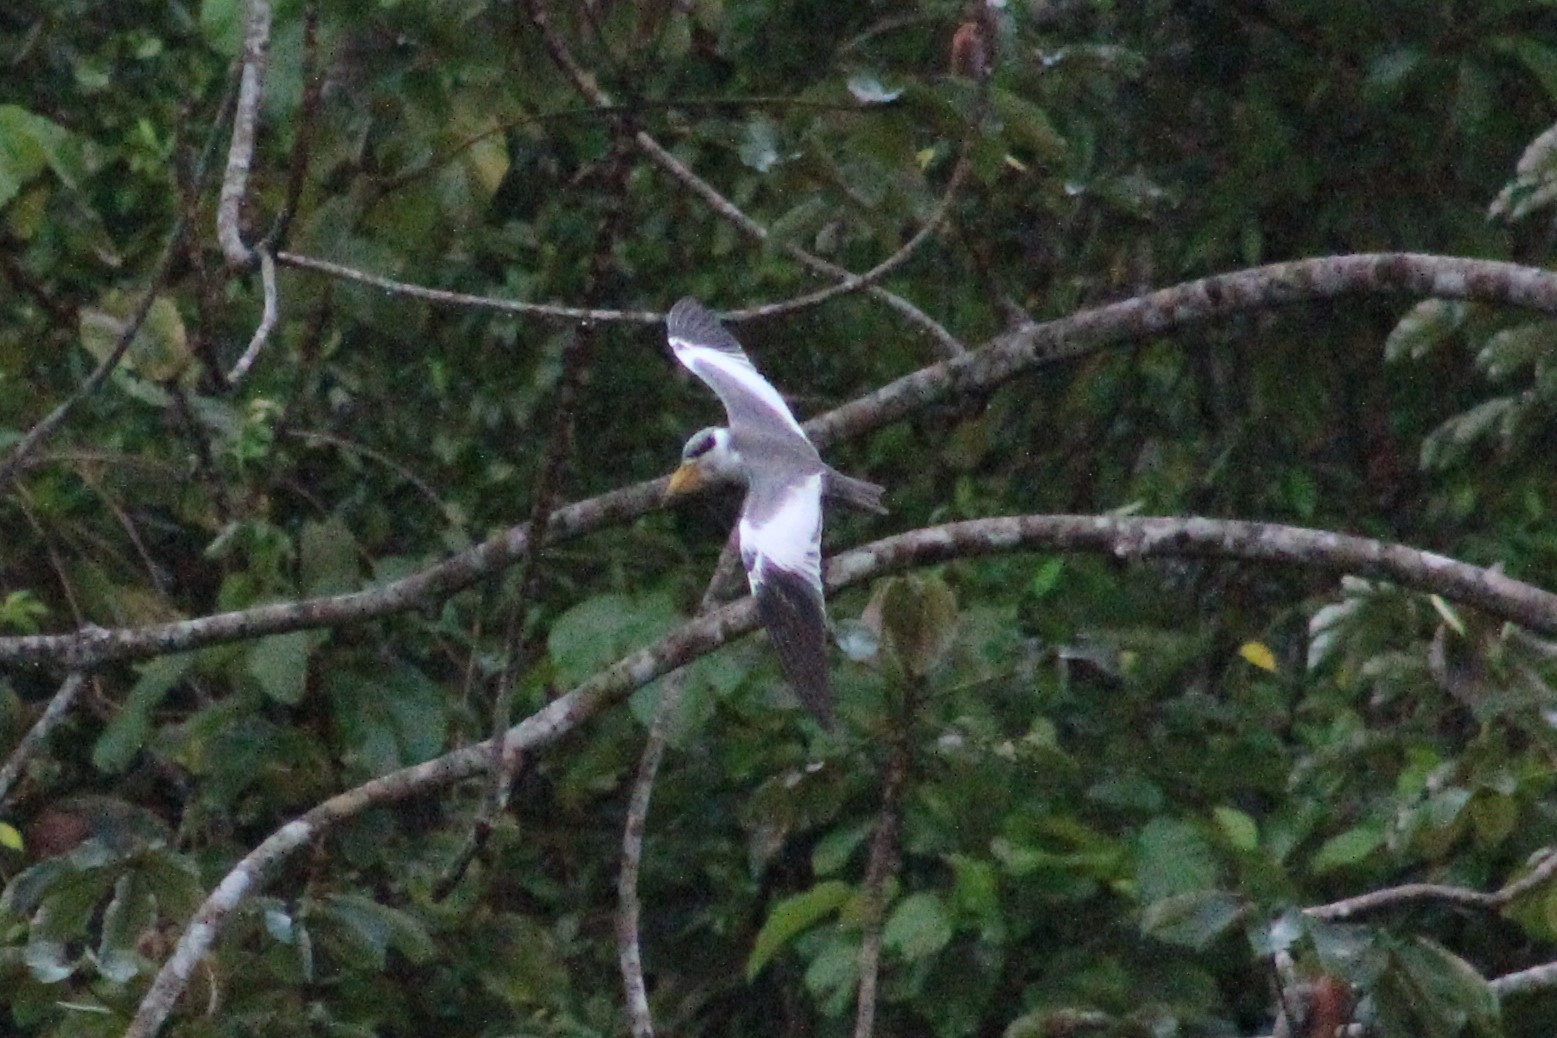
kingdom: Animalia
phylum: Chordata
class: Aves
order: Charadriiformes
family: Laridae
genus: Phaetusa
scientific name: Phaetusa simplex
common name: Large-billed tern
